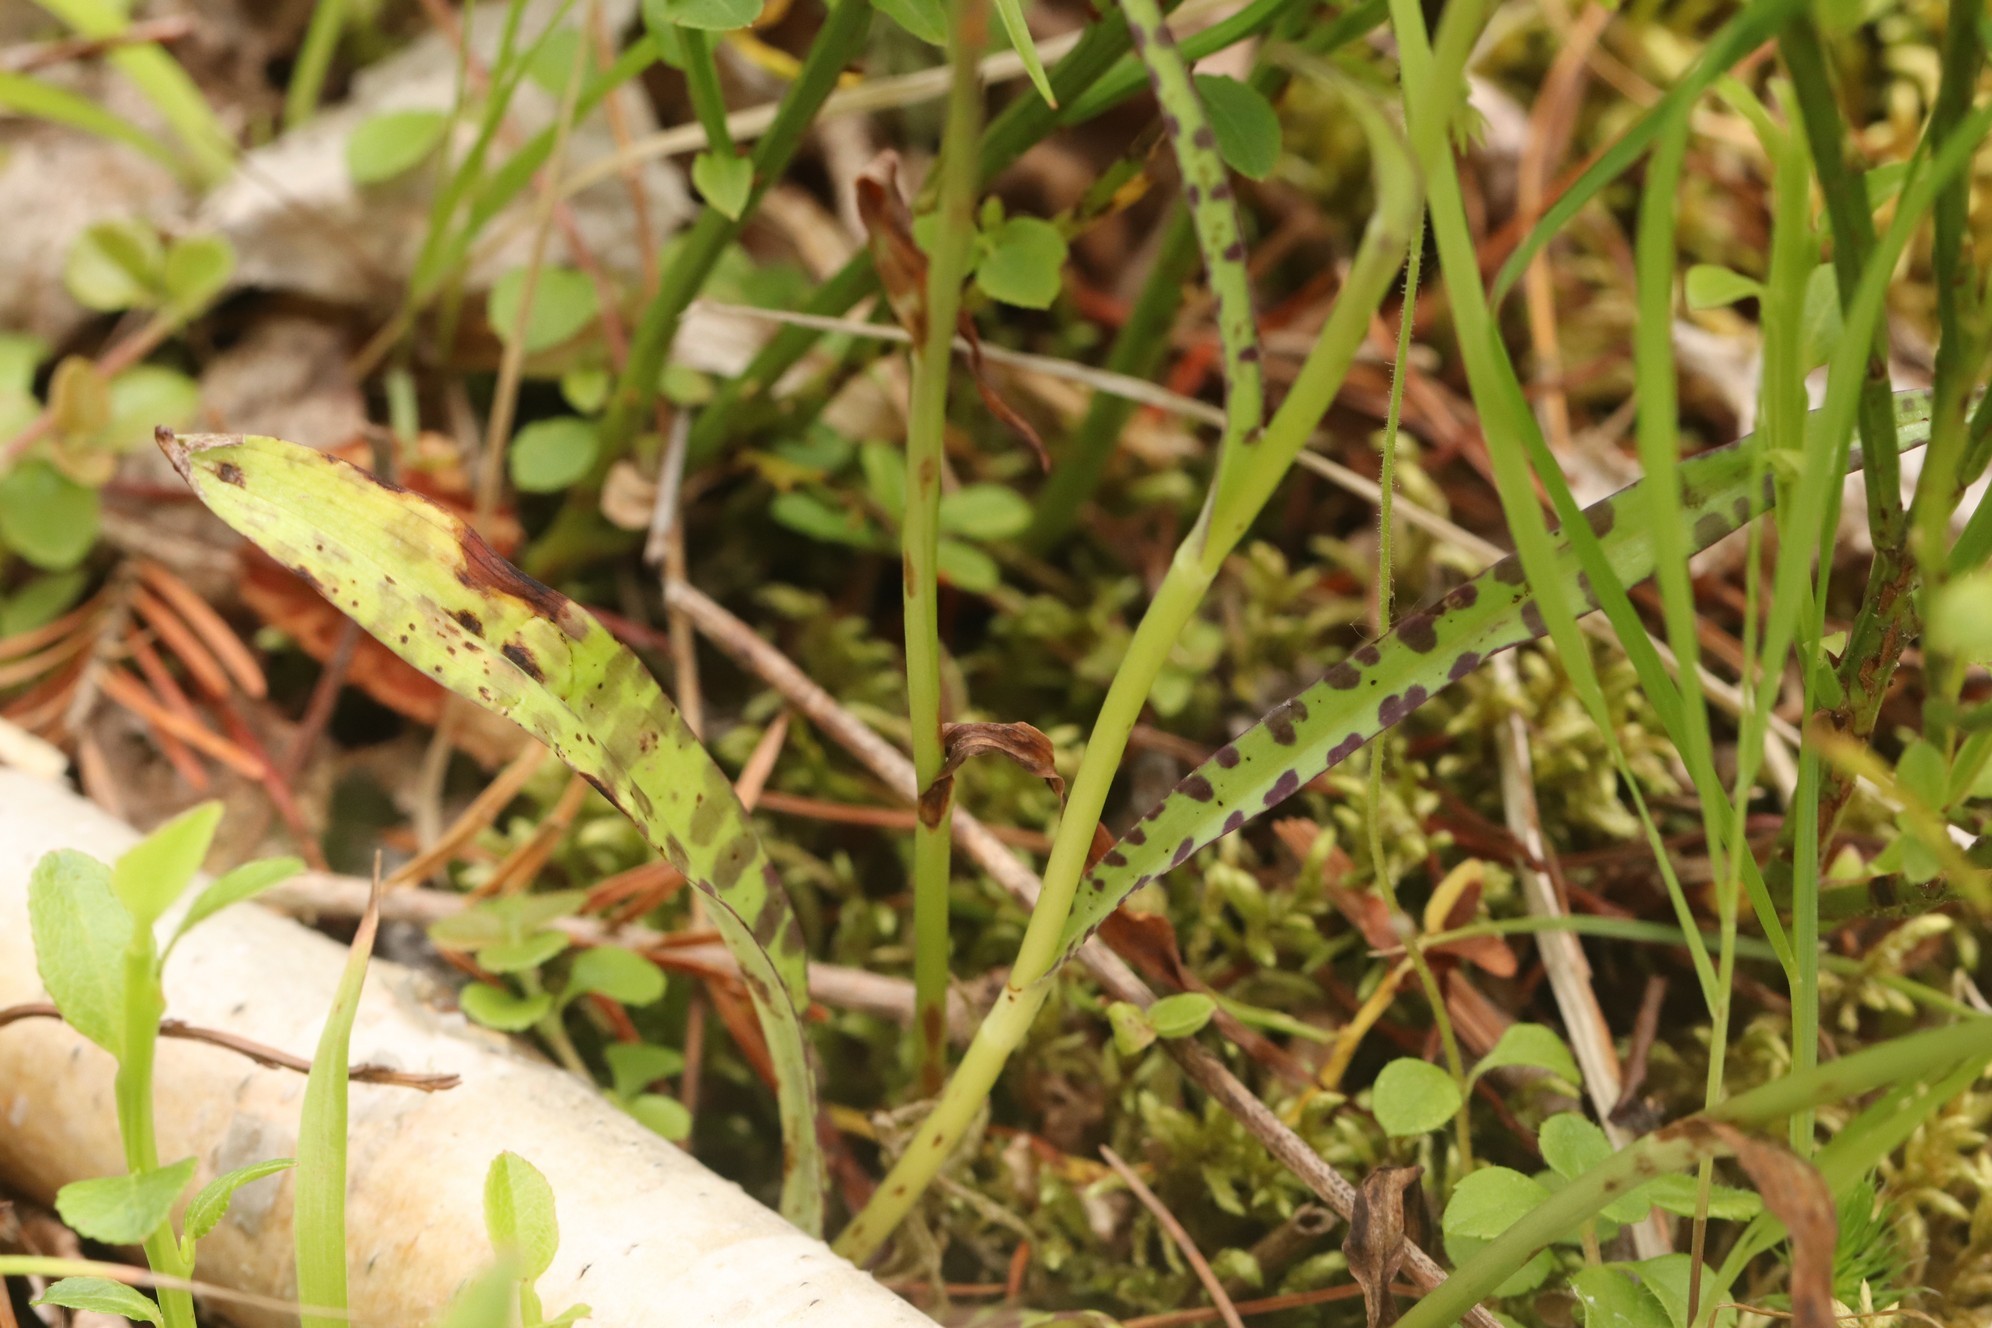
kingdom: Plantae
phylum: Tracheophyta
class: Liliopsida
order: Asparagales
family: Orchidaceae
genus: Dactylorhiza
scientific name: Dactylorhiza maculata
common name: Heath spotted-orchid
